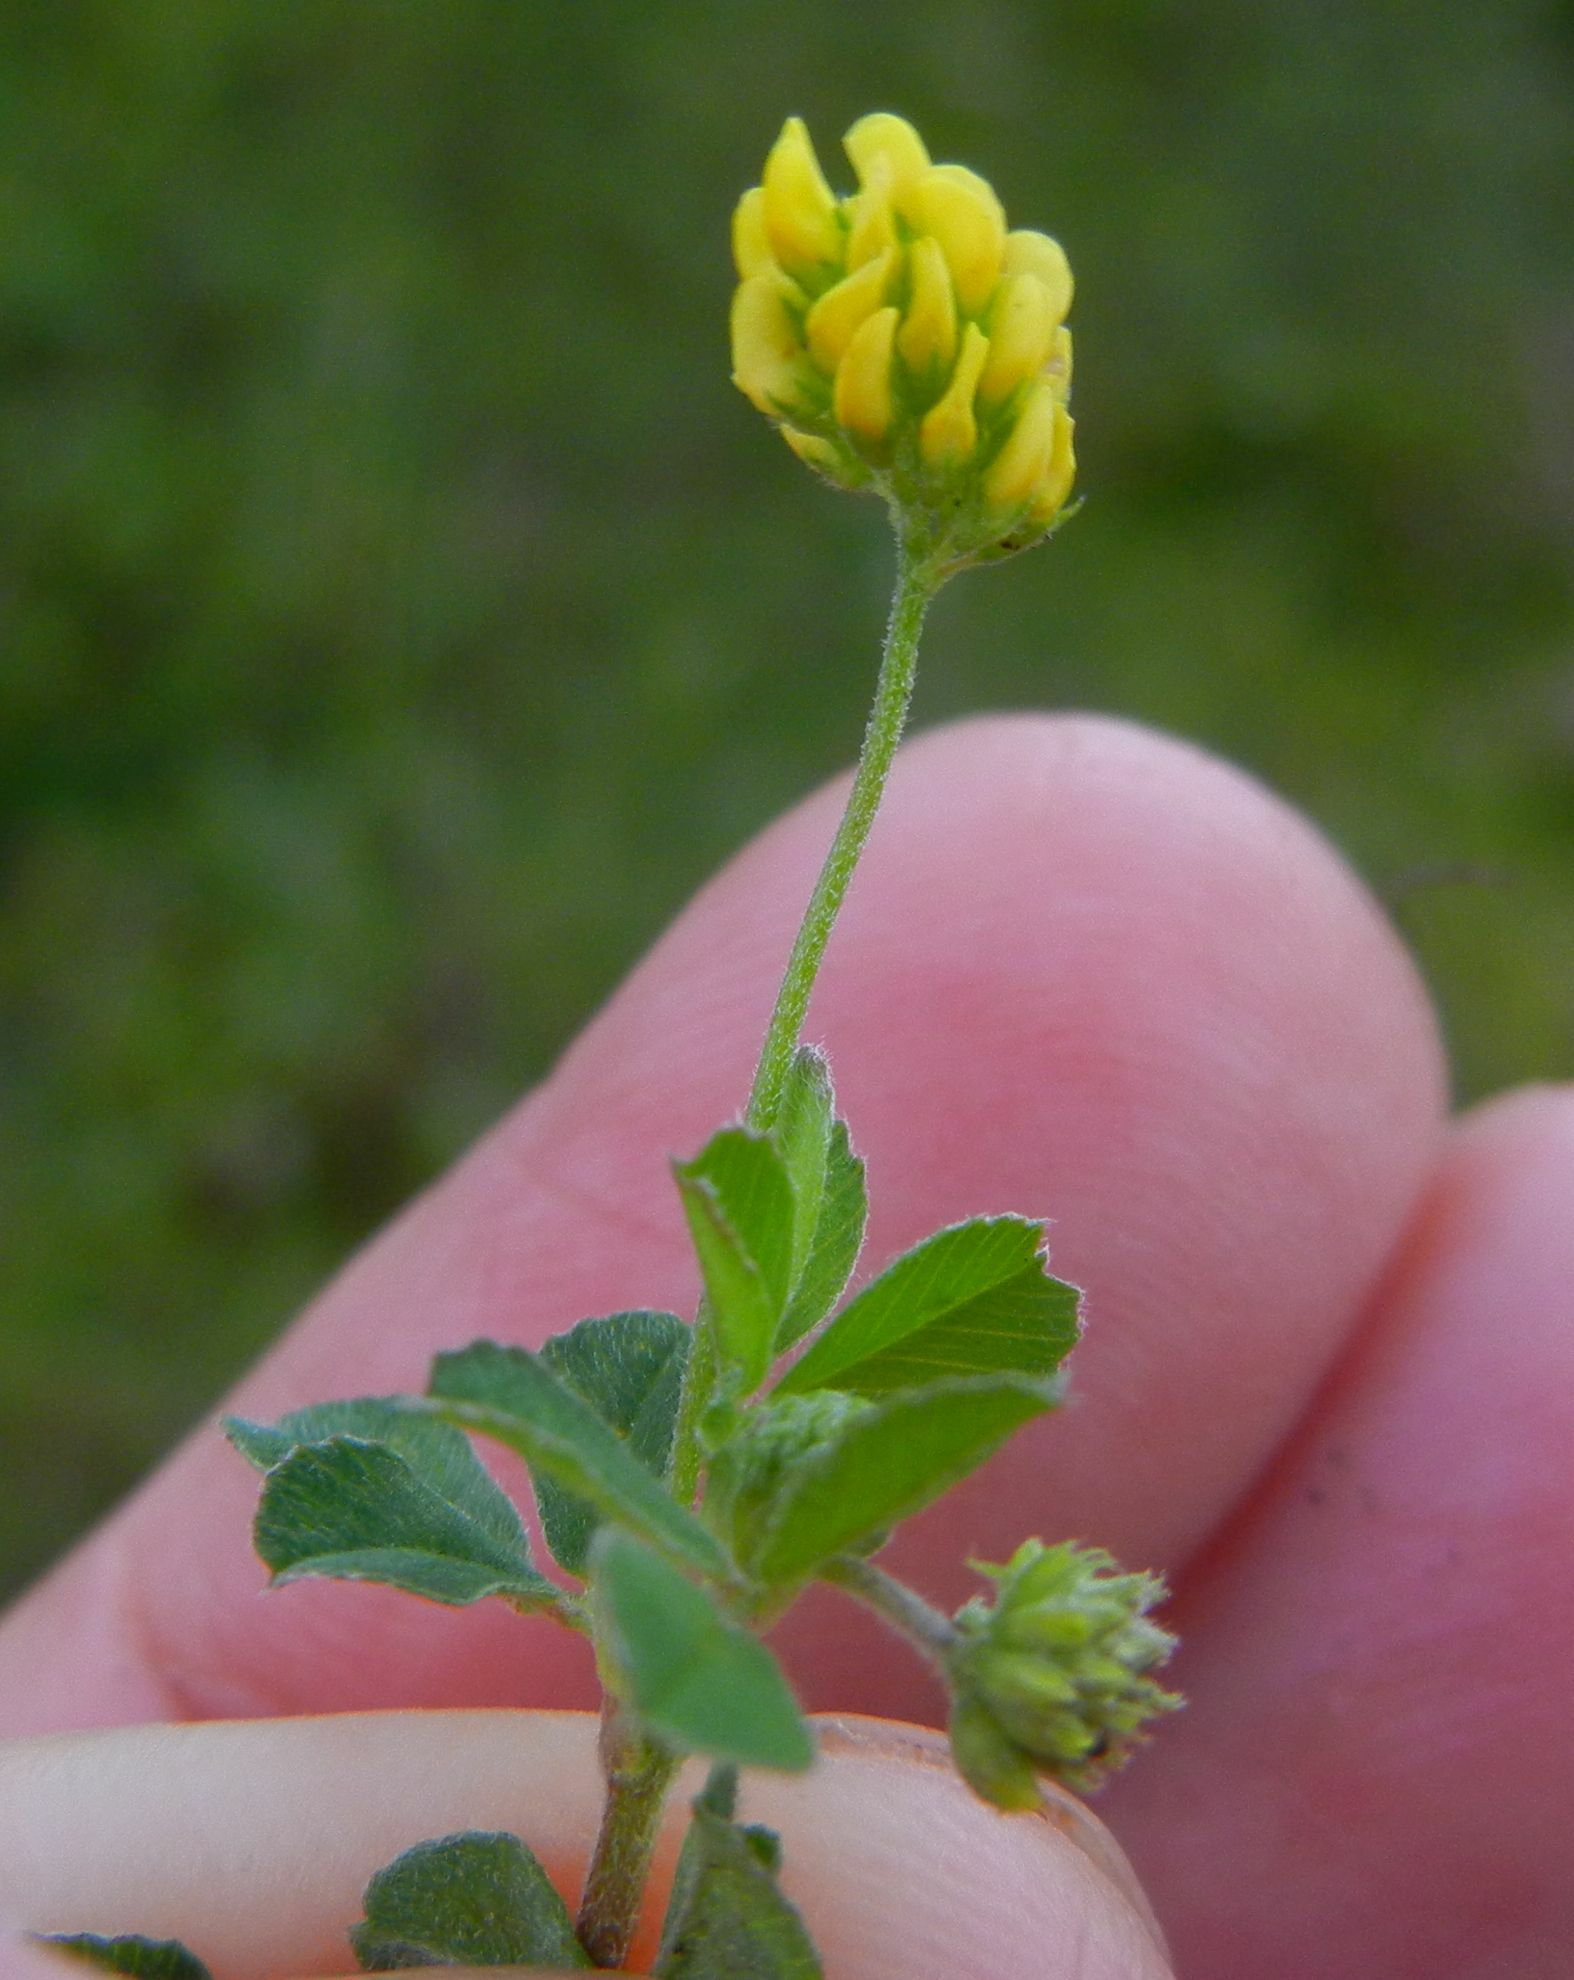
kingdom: Plantae
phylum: Tracheophyta
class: Magnoliopsida
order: Fabales
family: Fabaceae
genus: Medicago
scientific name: Medicago lupulina
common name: Black medick
